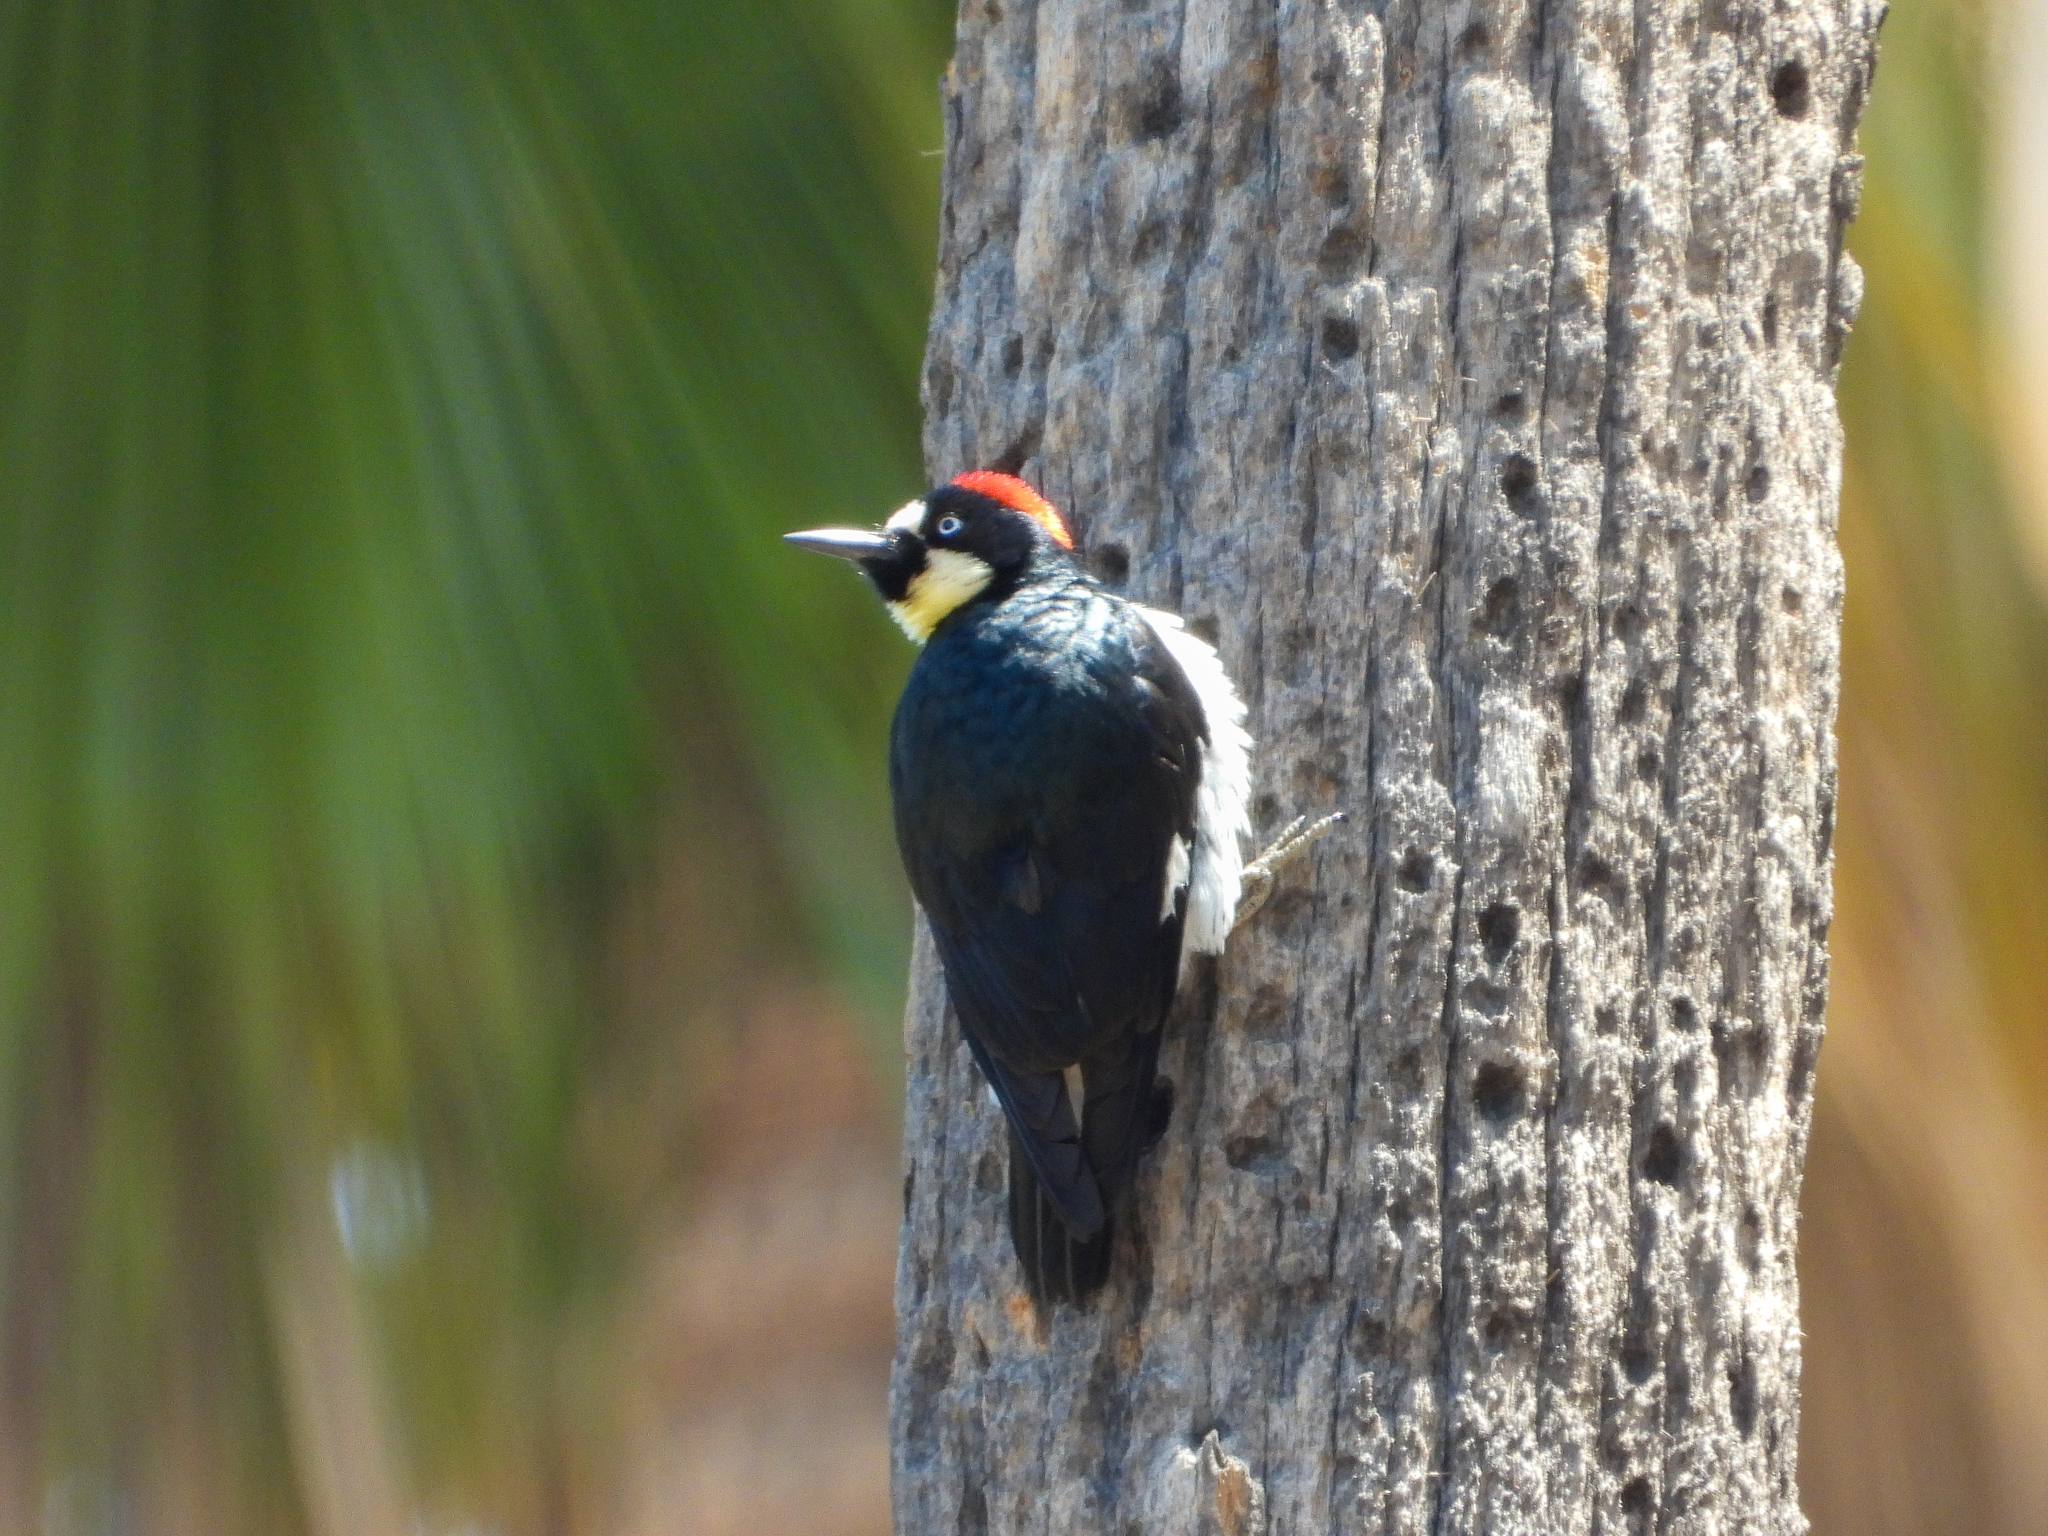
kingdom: Animalia
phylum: Chordata
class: Aves
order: Piciformes
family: Picidae
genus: Melanerpes
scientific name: Melanerpes formicivorus
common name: Acorn woodpecker
